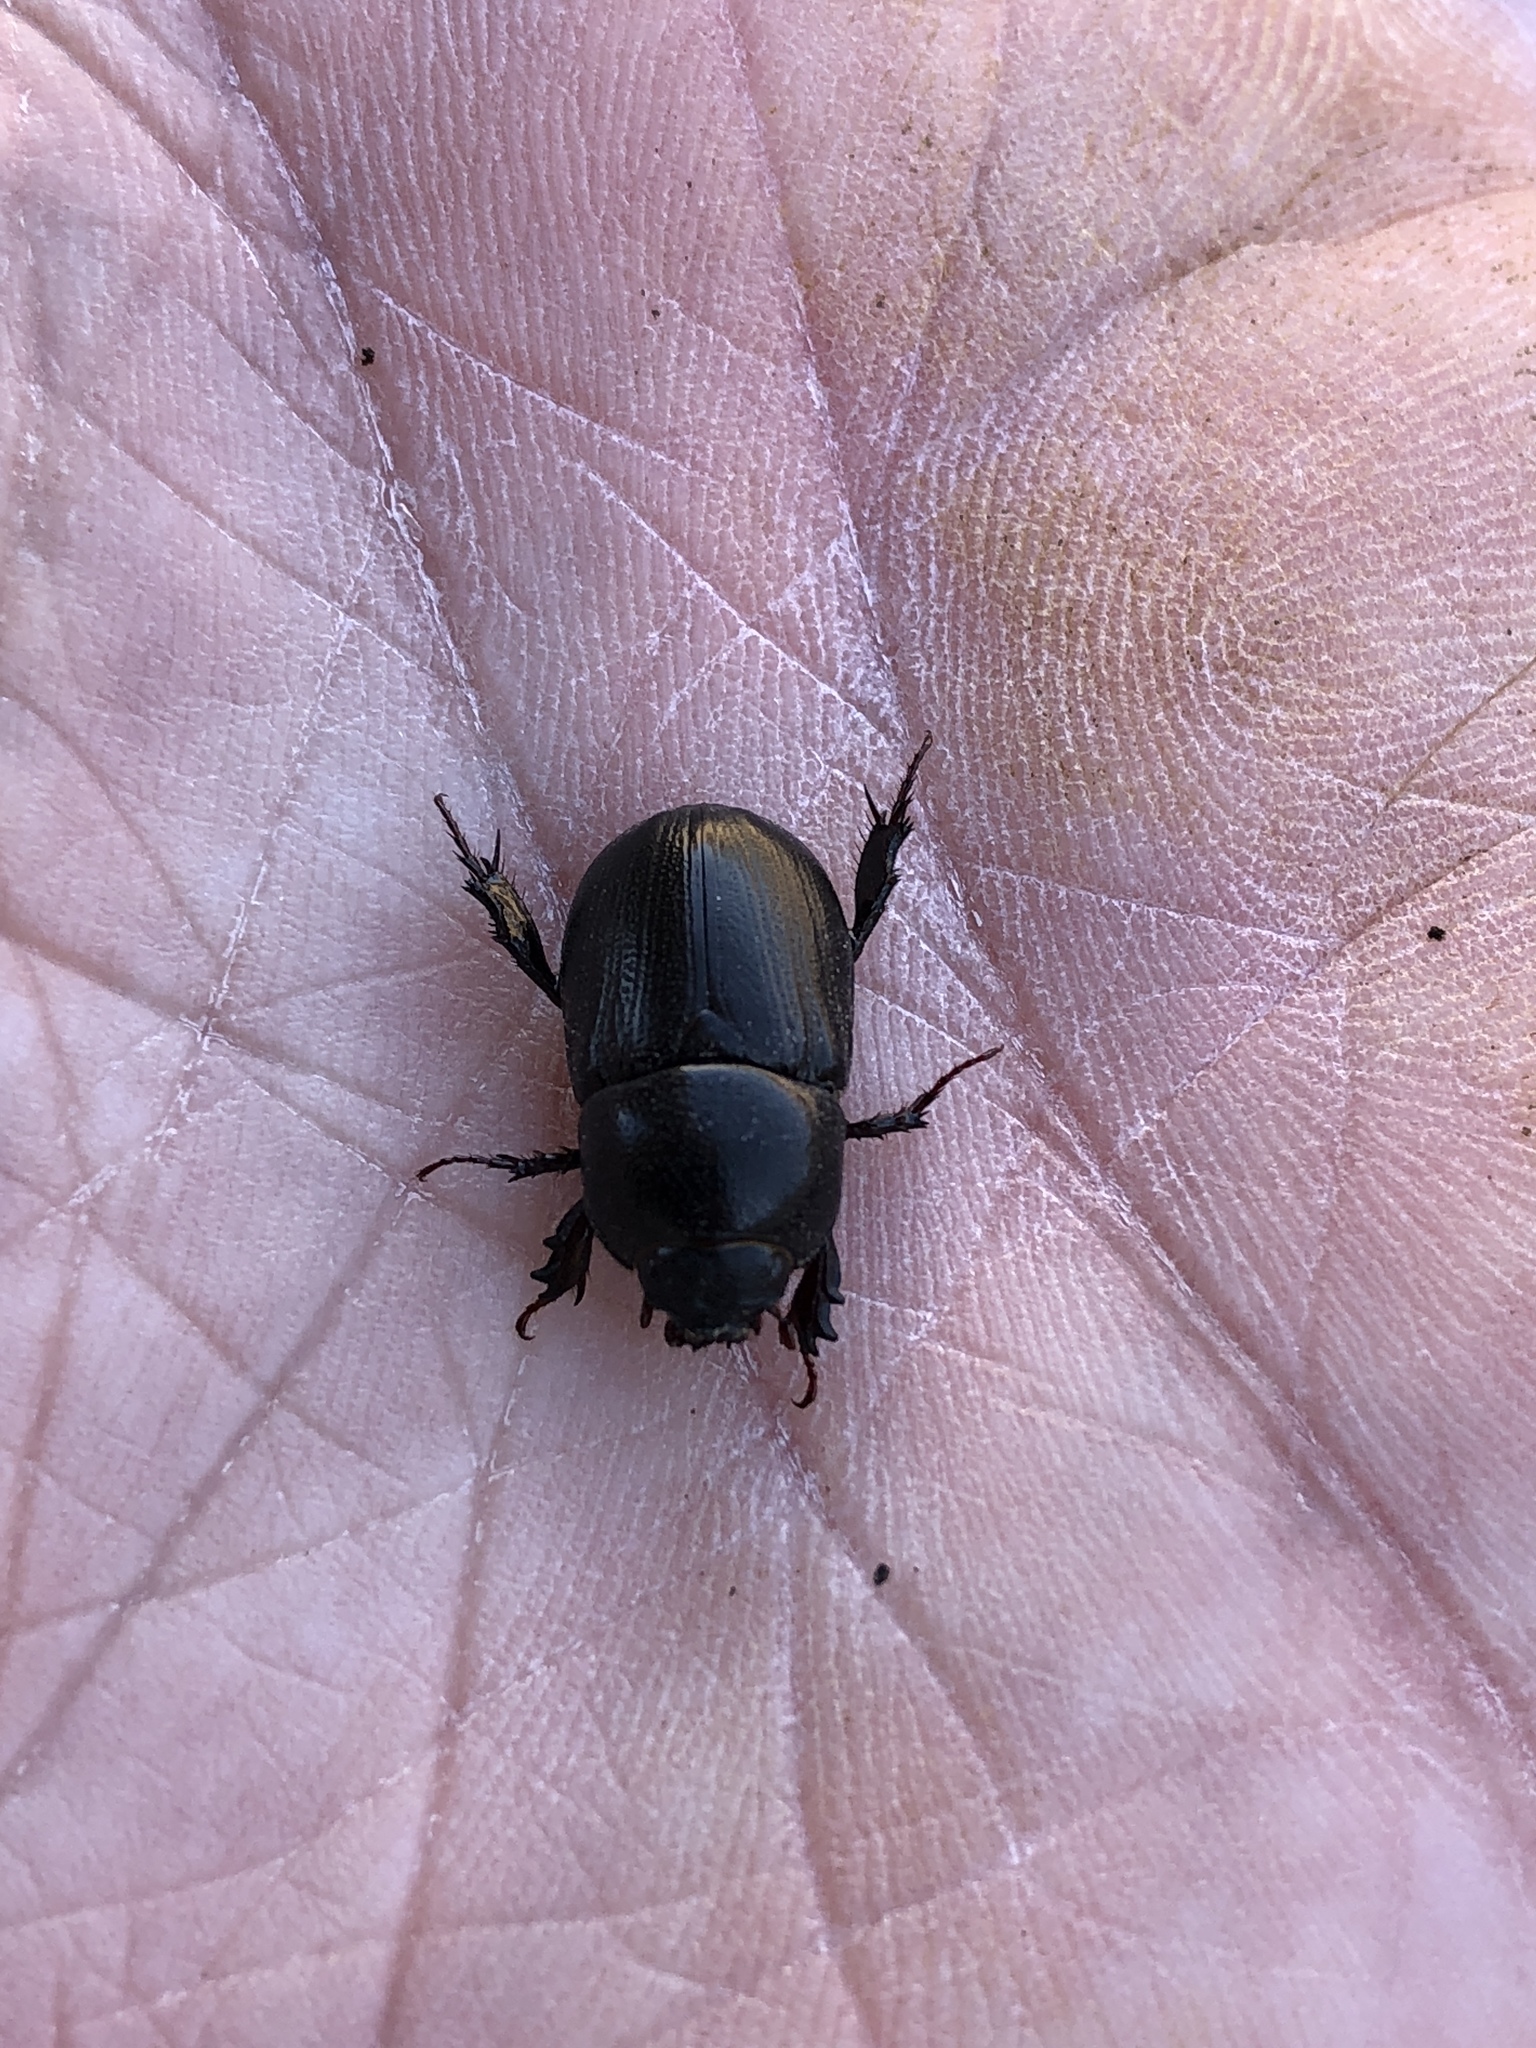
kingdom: Animalia
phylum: Arthropoda
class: Insecta
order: Coleoptera
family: Scarabaeidae
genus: Euetheola
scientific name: Euetheola humilis
